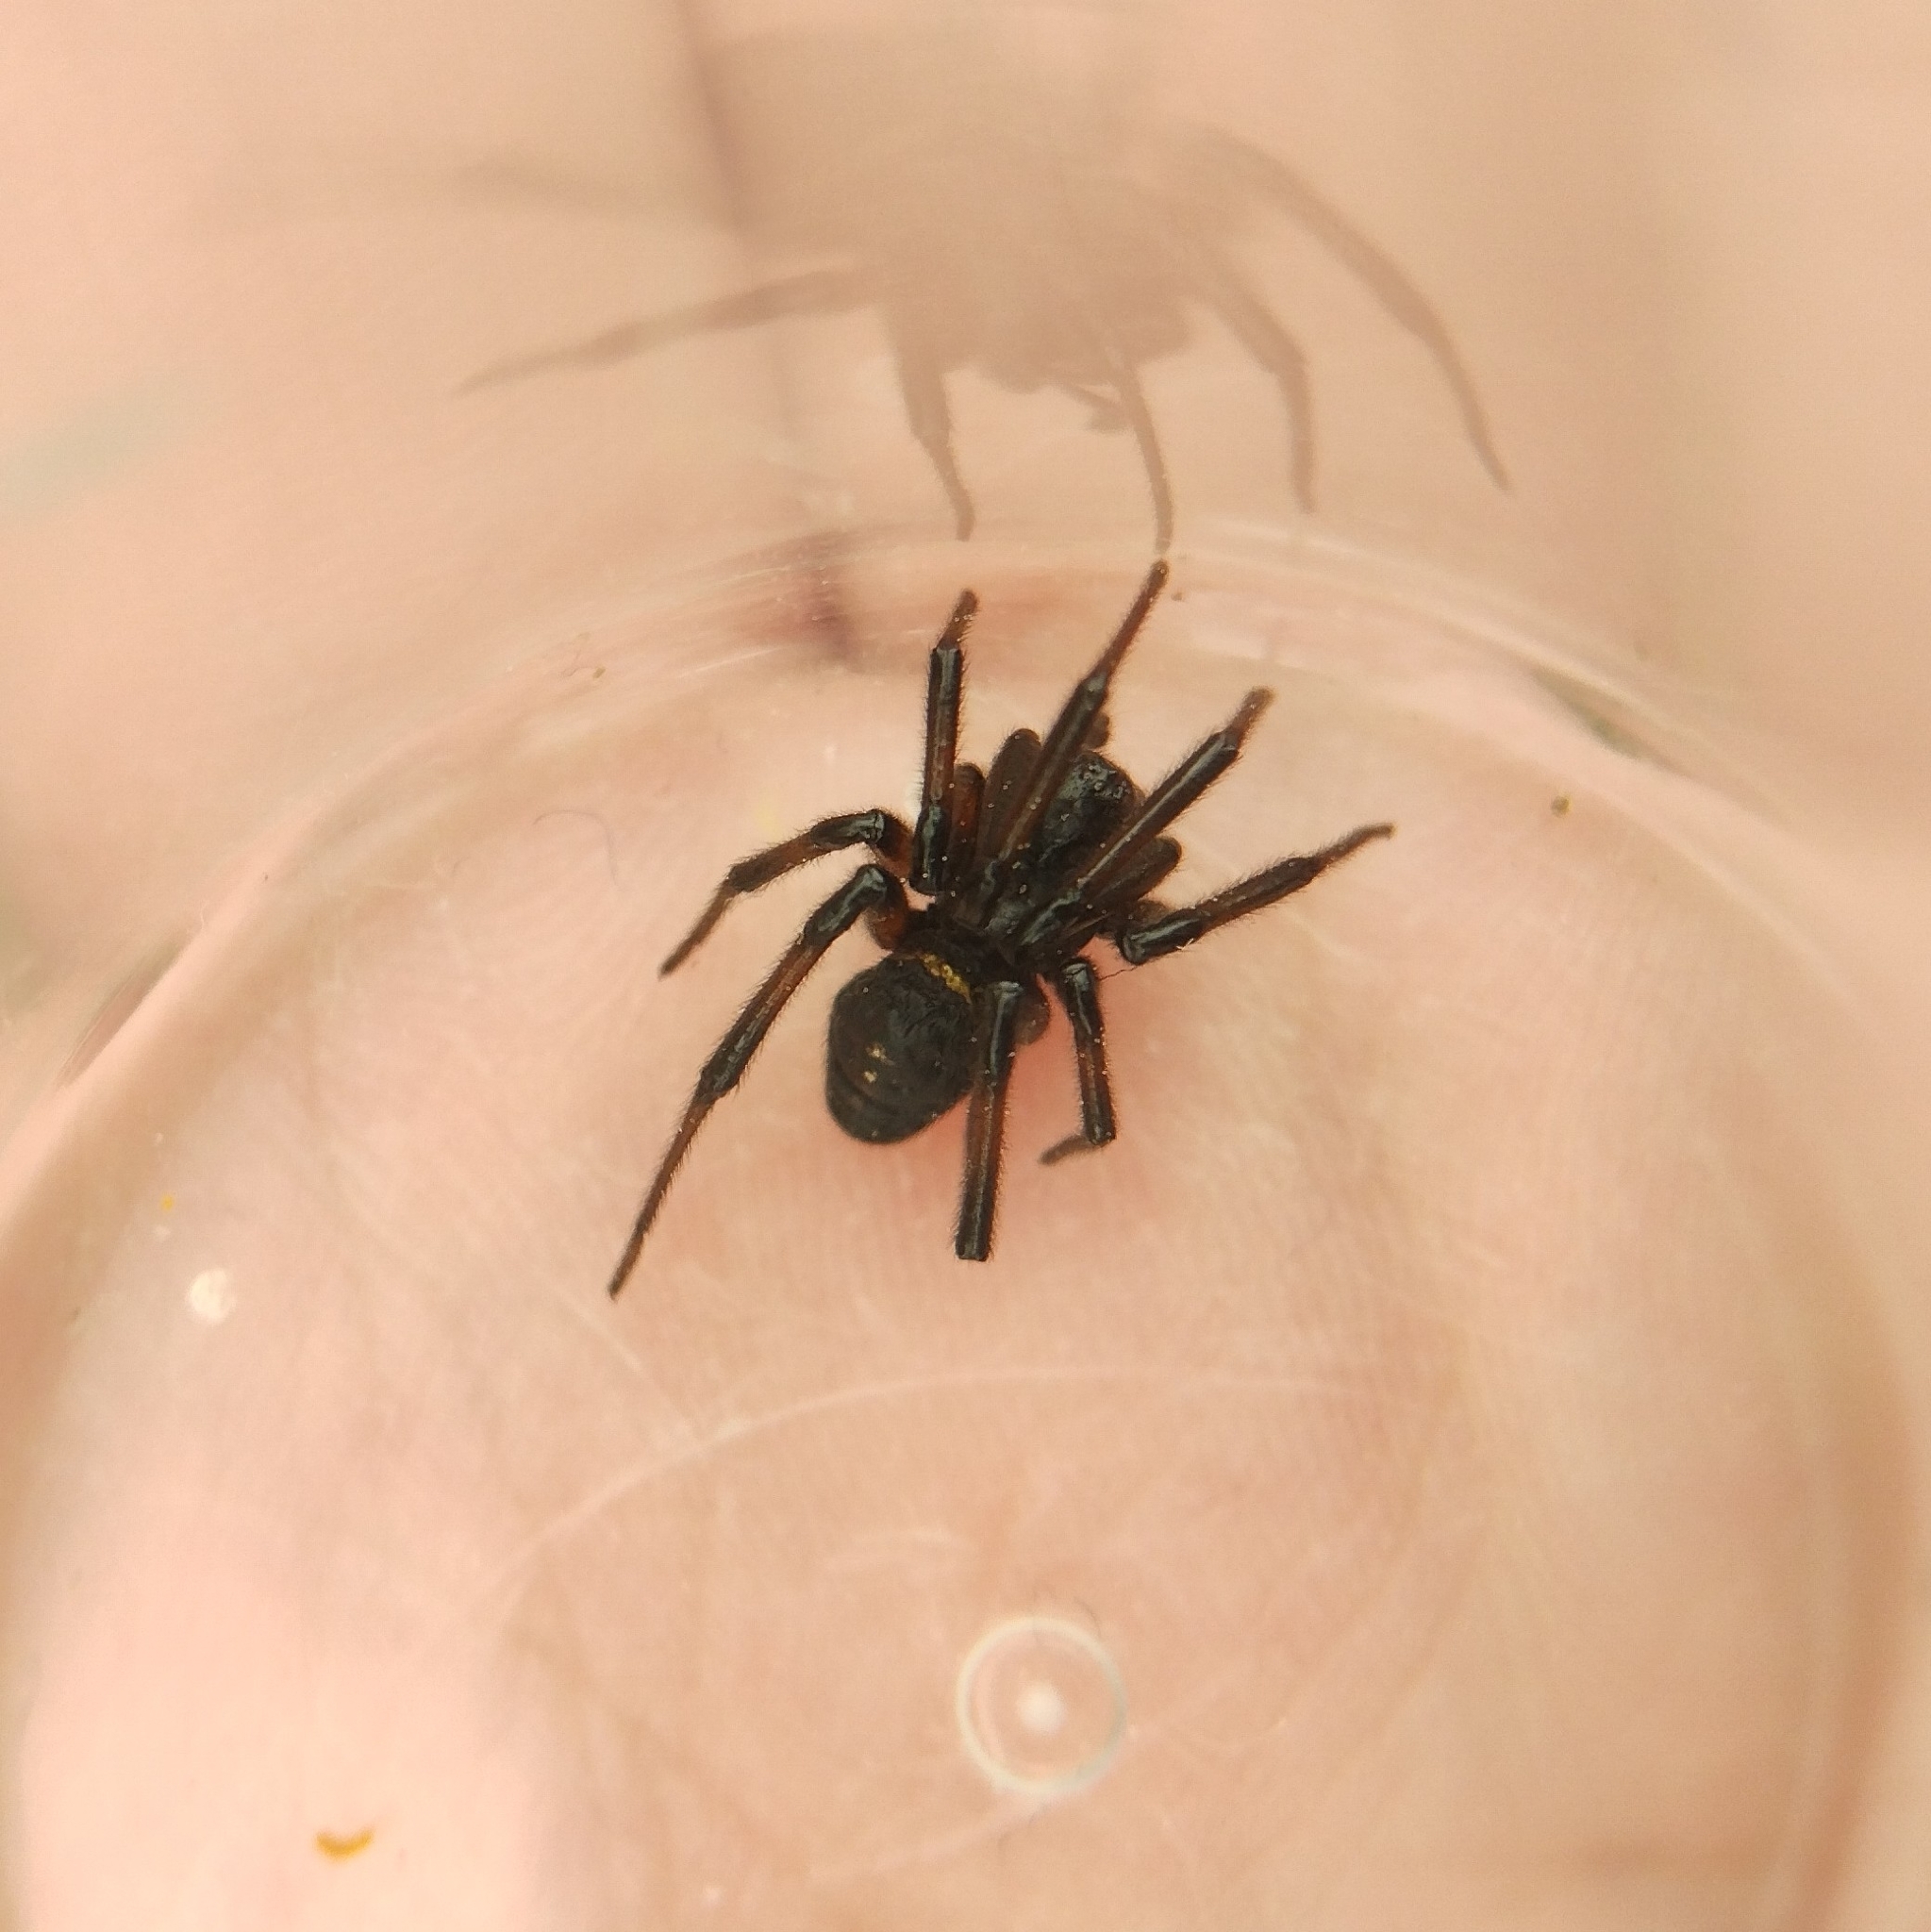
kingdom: Animalia
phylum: Arthropoda
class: Arachnida
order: Araneae
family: Theridiidae
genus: Steatoda
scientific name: Steatoda paykulliana
